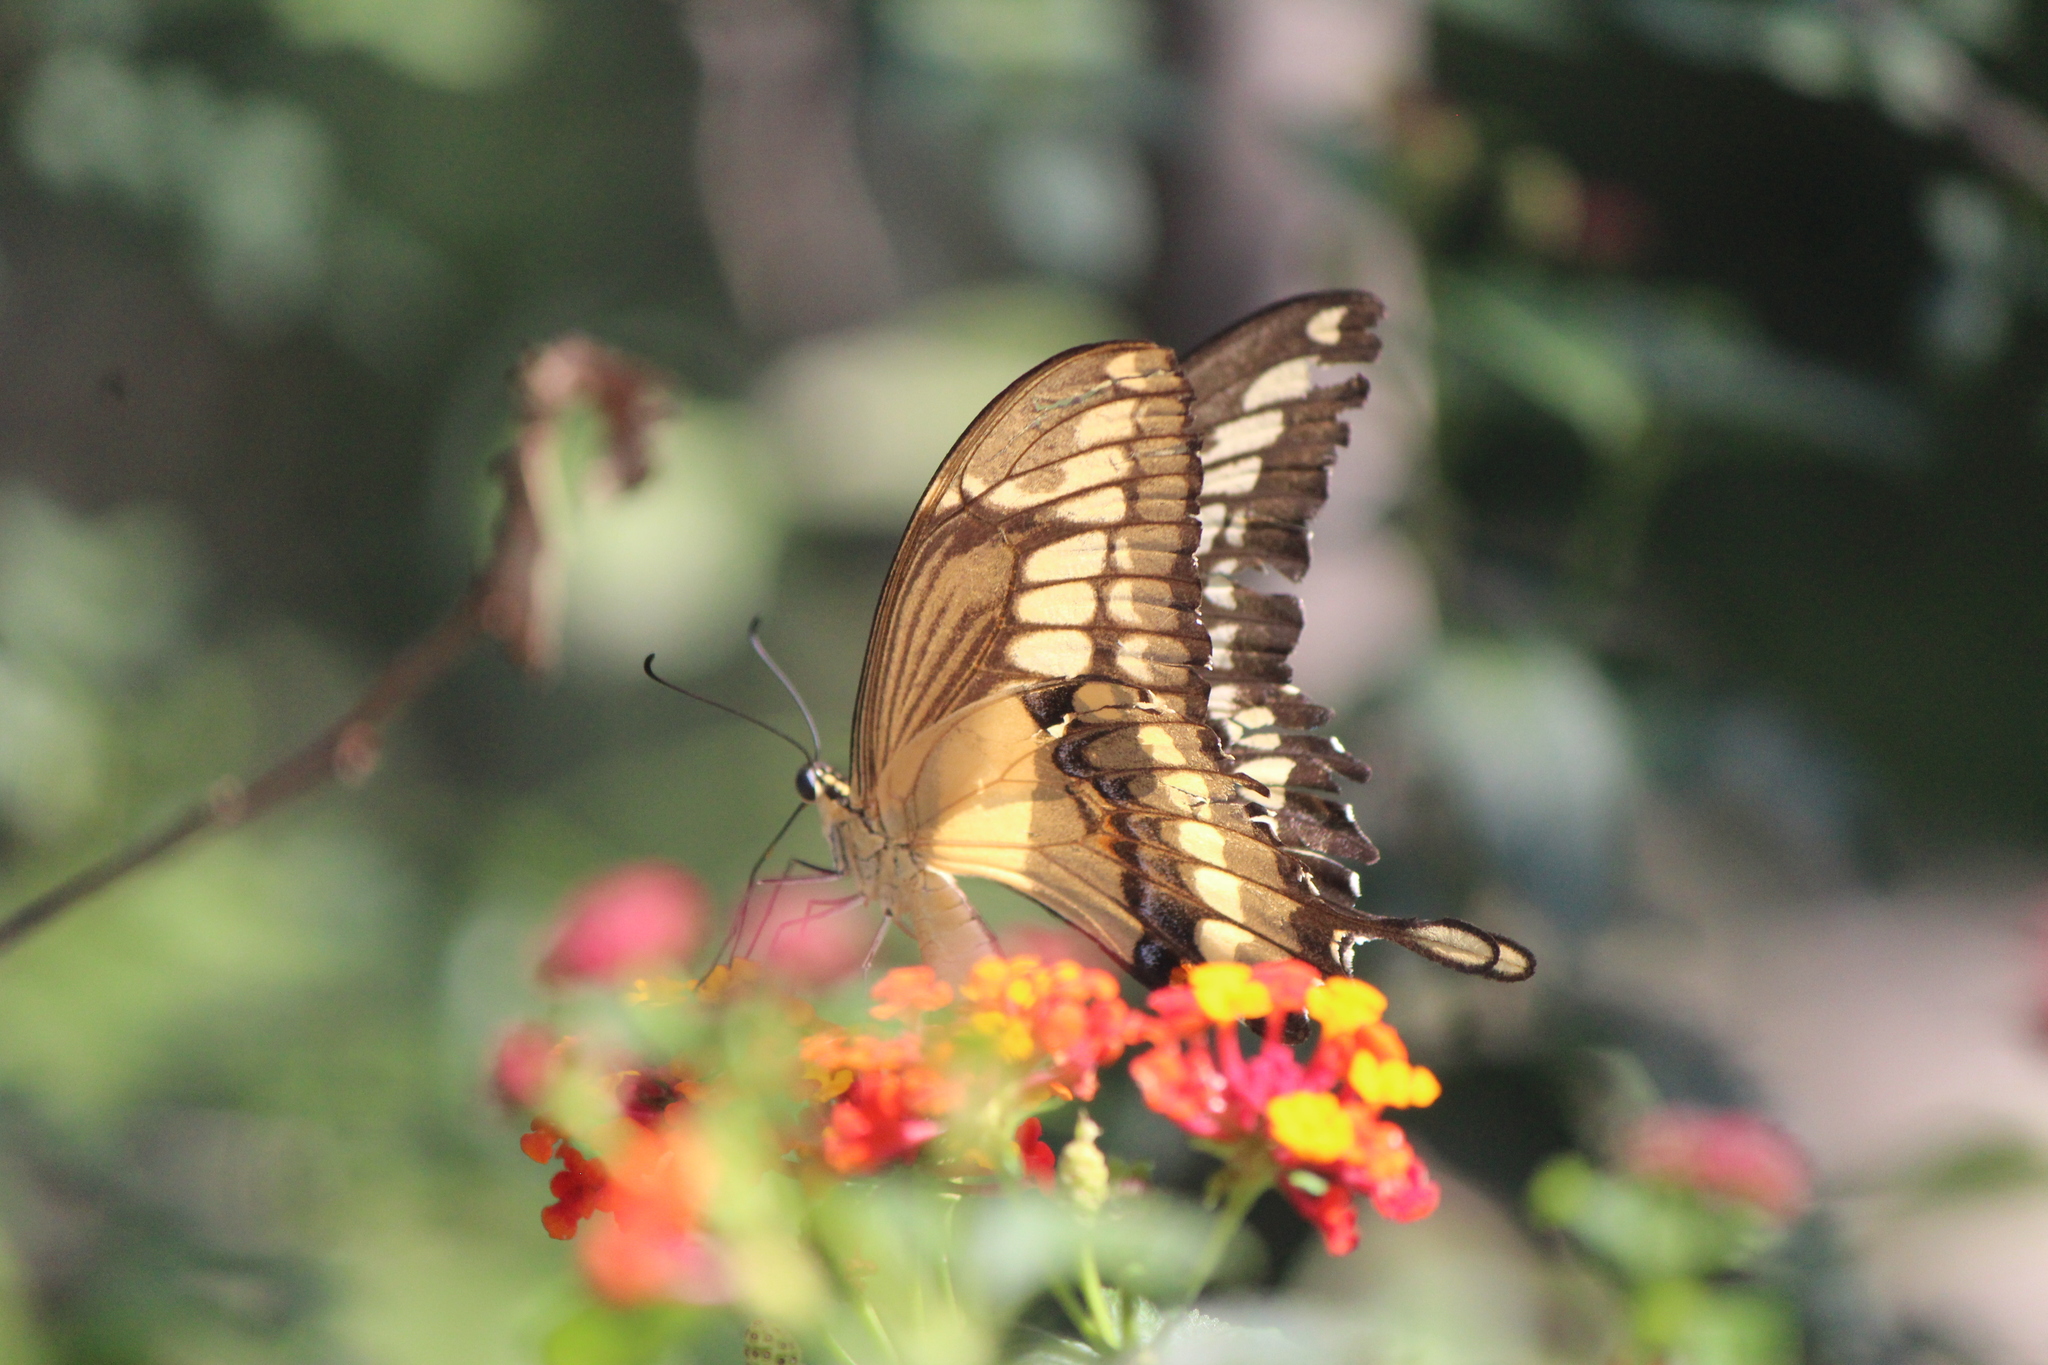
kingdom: Animalia
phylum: Arthropoda
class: Insecta
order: Lepidoptera
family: Papilionidae
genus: Papilio
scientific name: Papilio thoas
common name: King swallowtail
